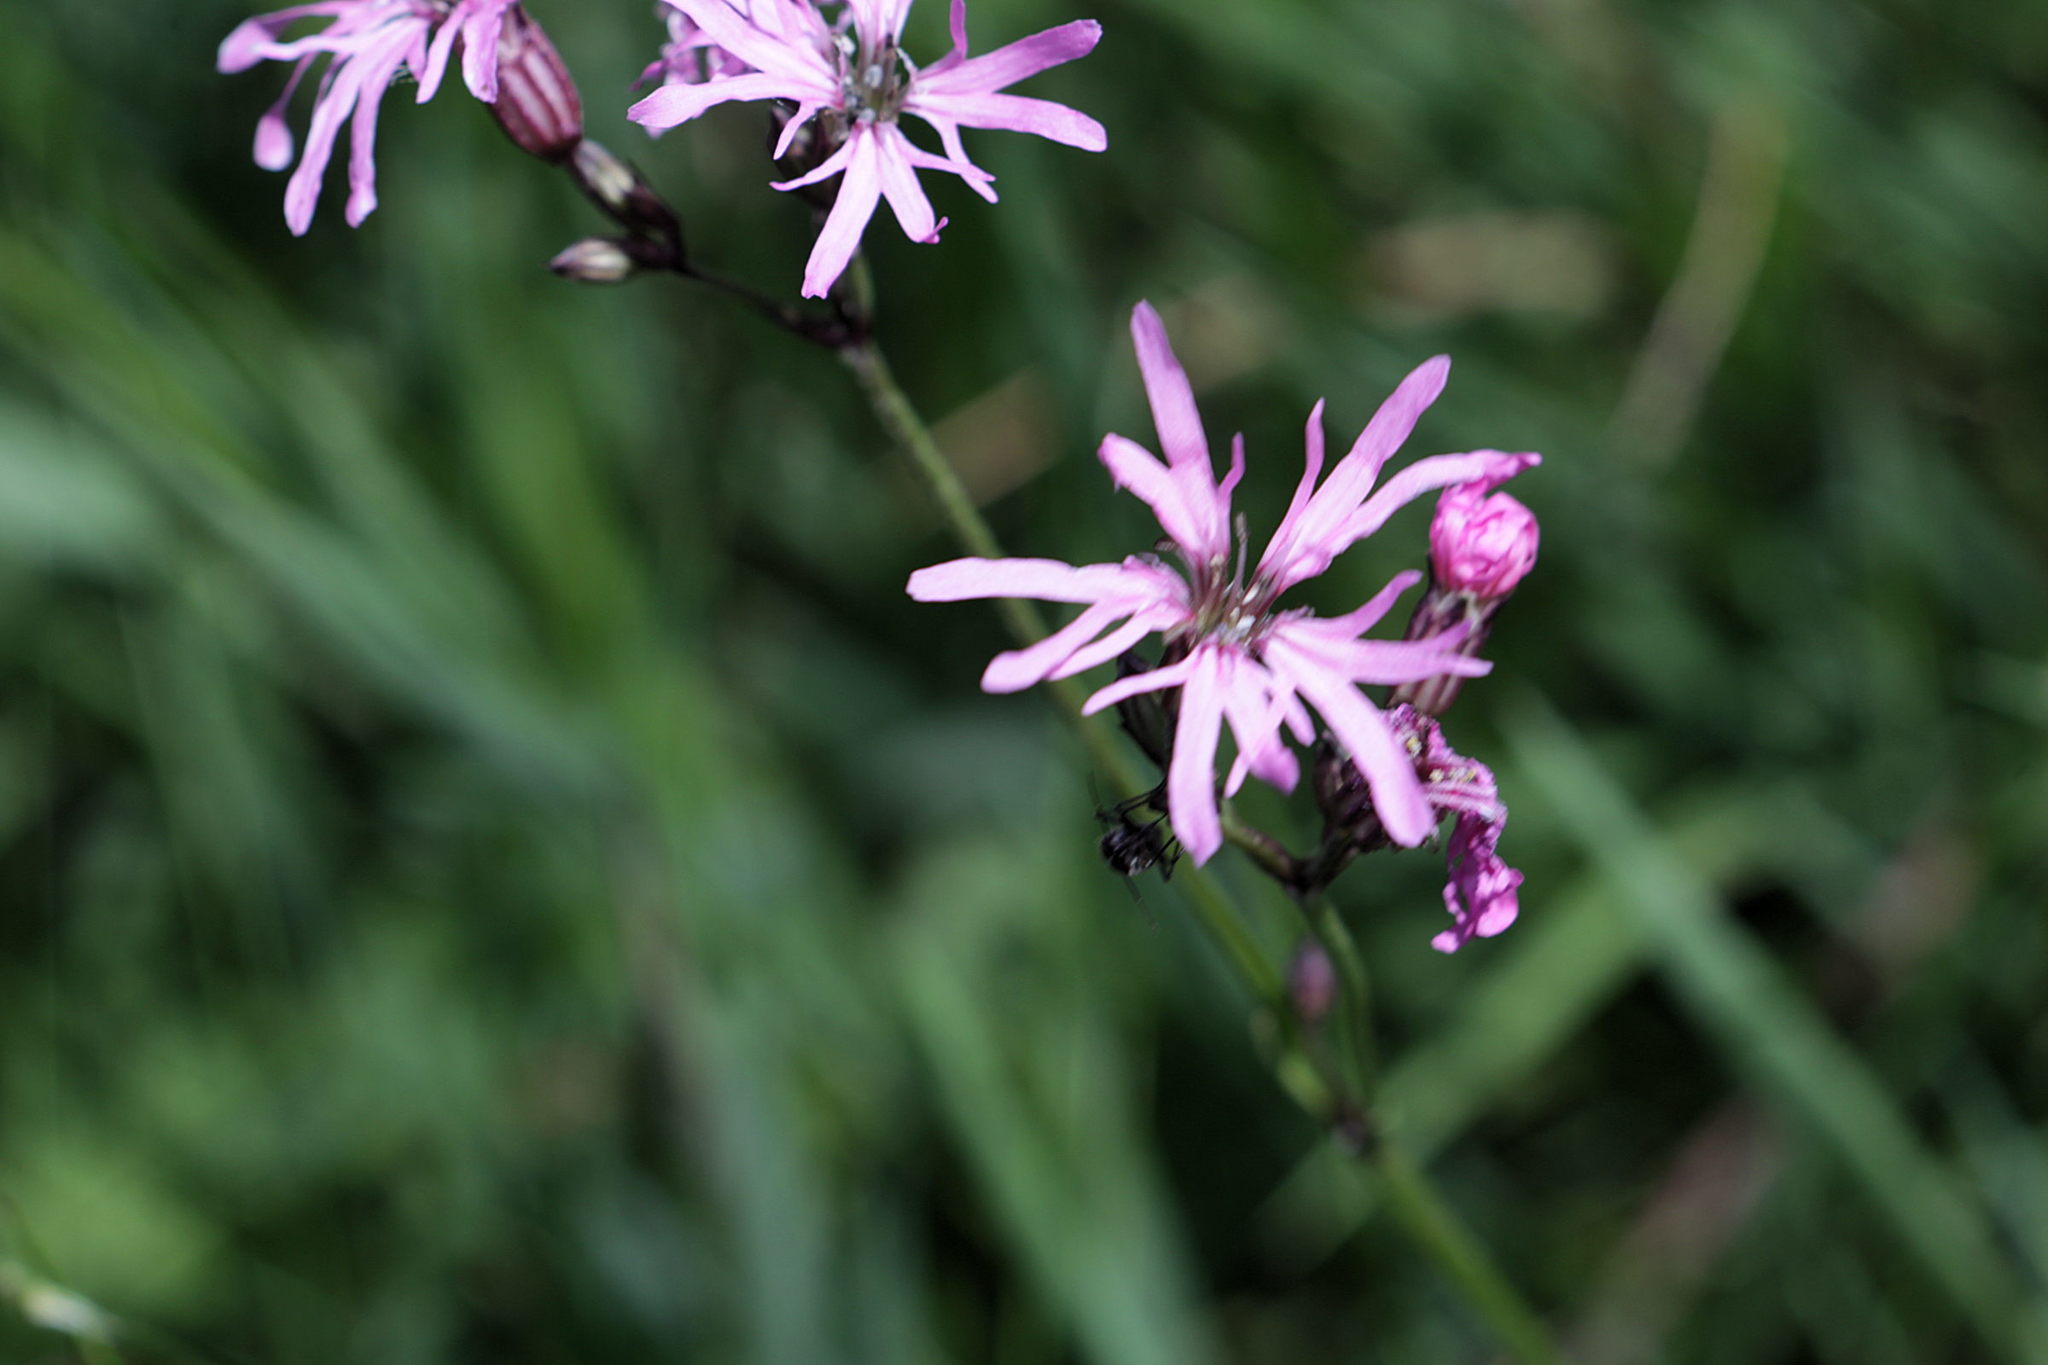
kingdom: Plantae
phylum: Tracheophyta
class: Magnoliopsida
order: Caryophyllales
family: Caryophyllaceae
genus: Silene
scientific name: Silene flos-cuculi
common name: Ragged-robin
